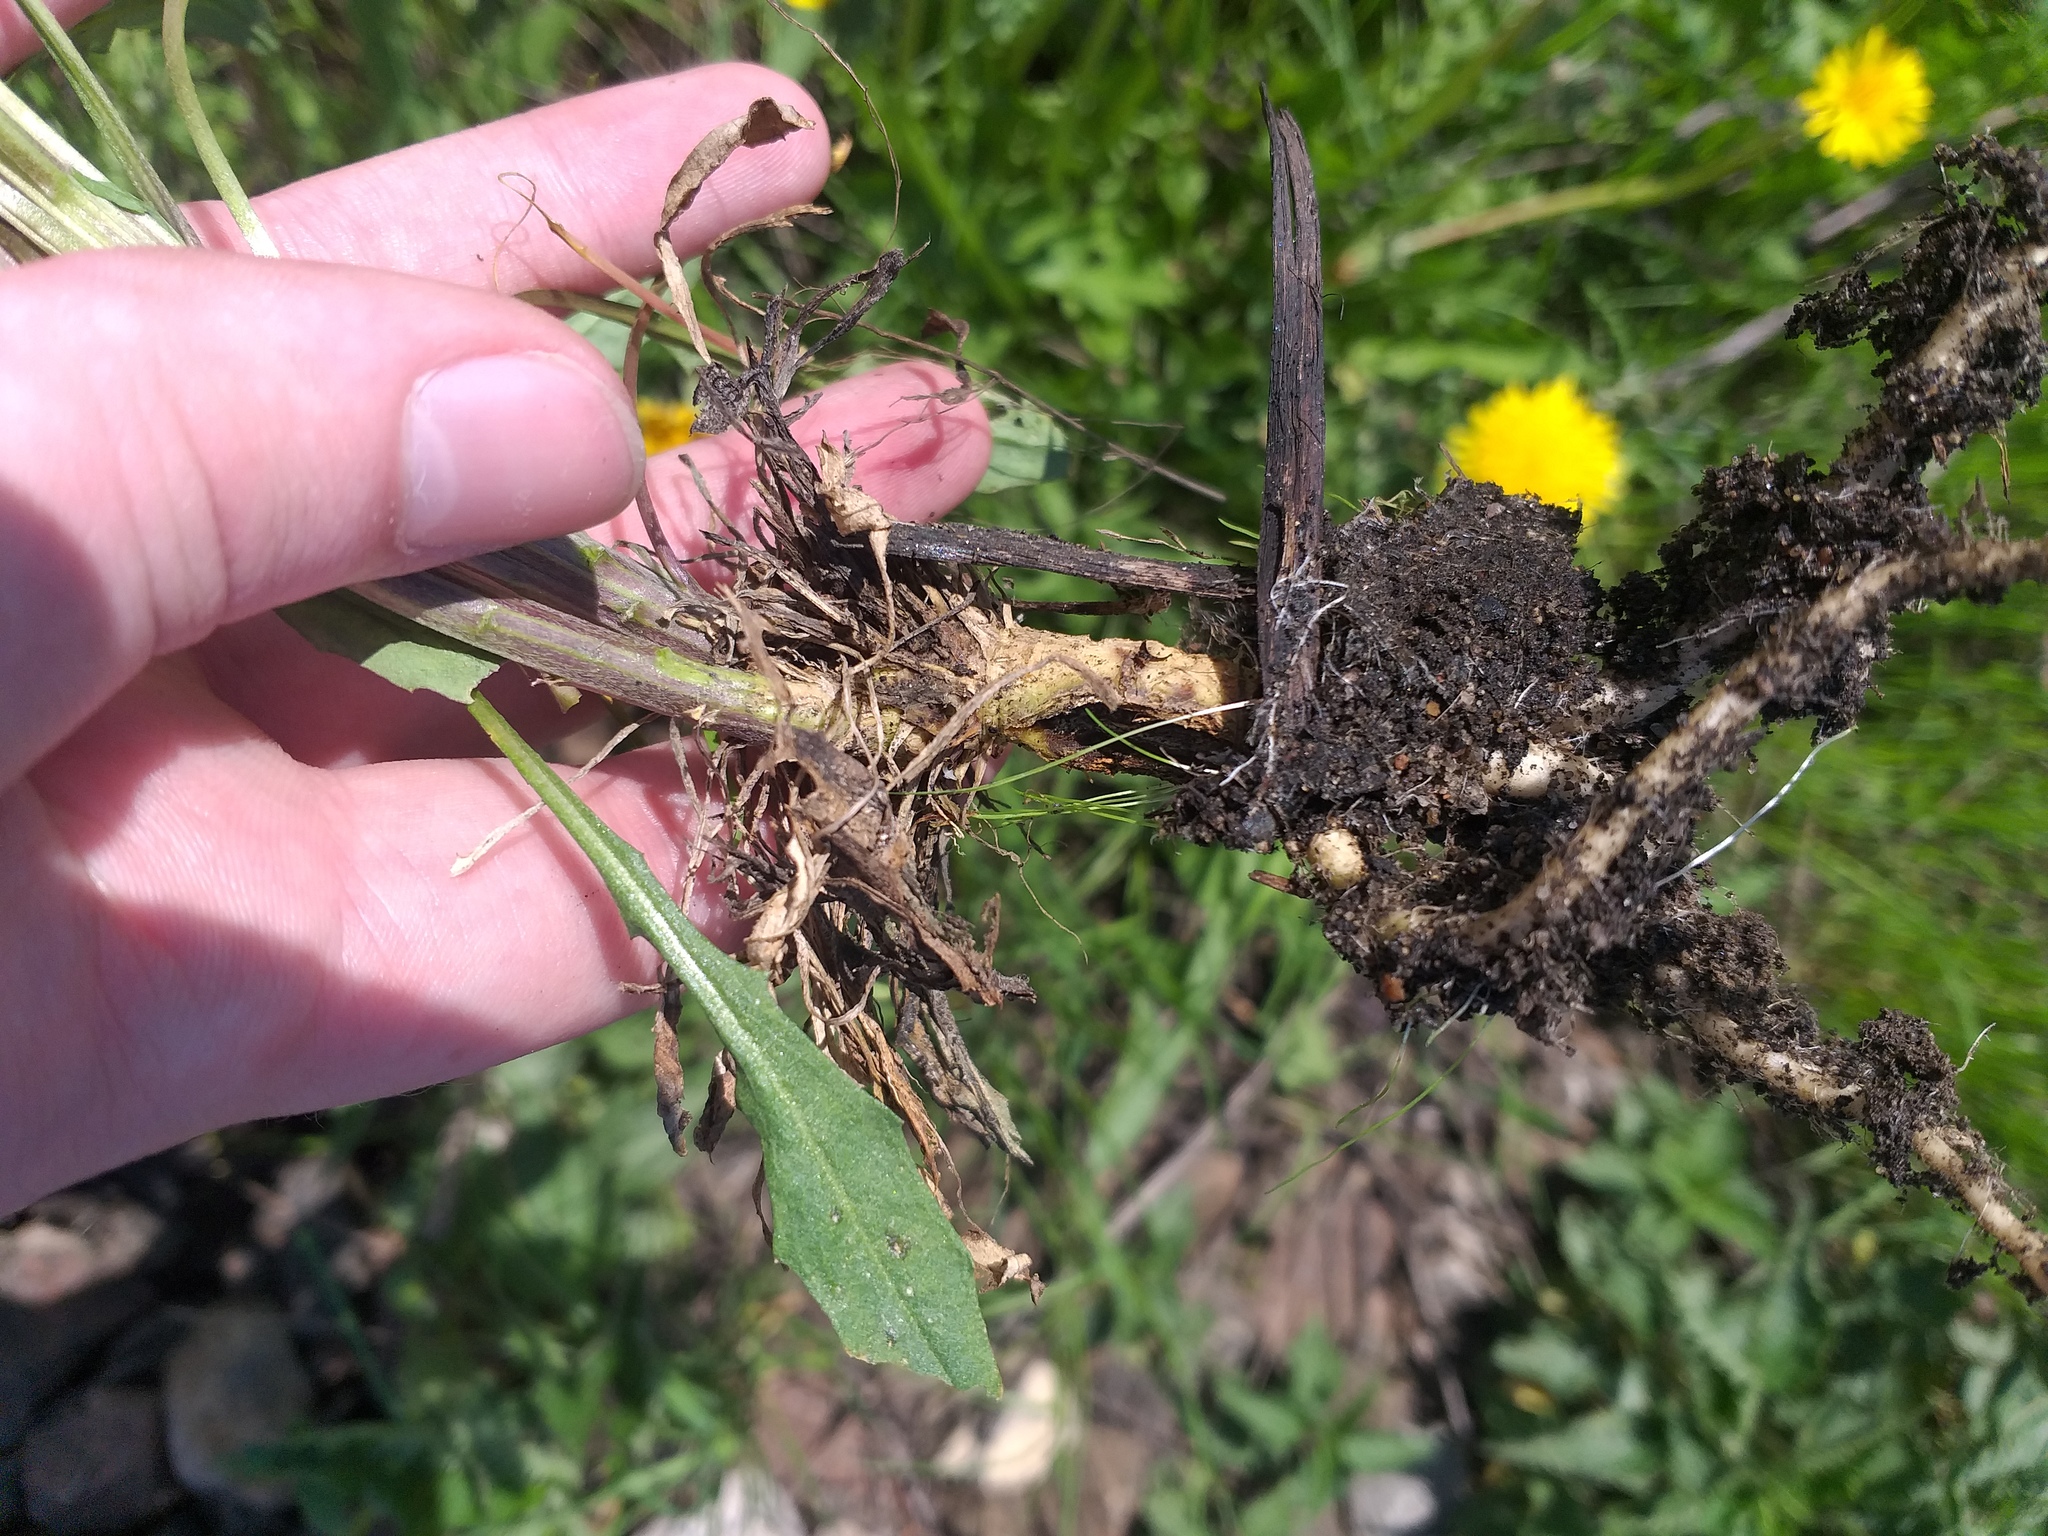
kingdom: Plantae
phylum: Tracheophyta
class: Magnoliopsida
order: Brassicales
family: Brassicaceae
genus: Erysimum
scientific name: Erysimum hieraciifolium
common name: European wallflower
